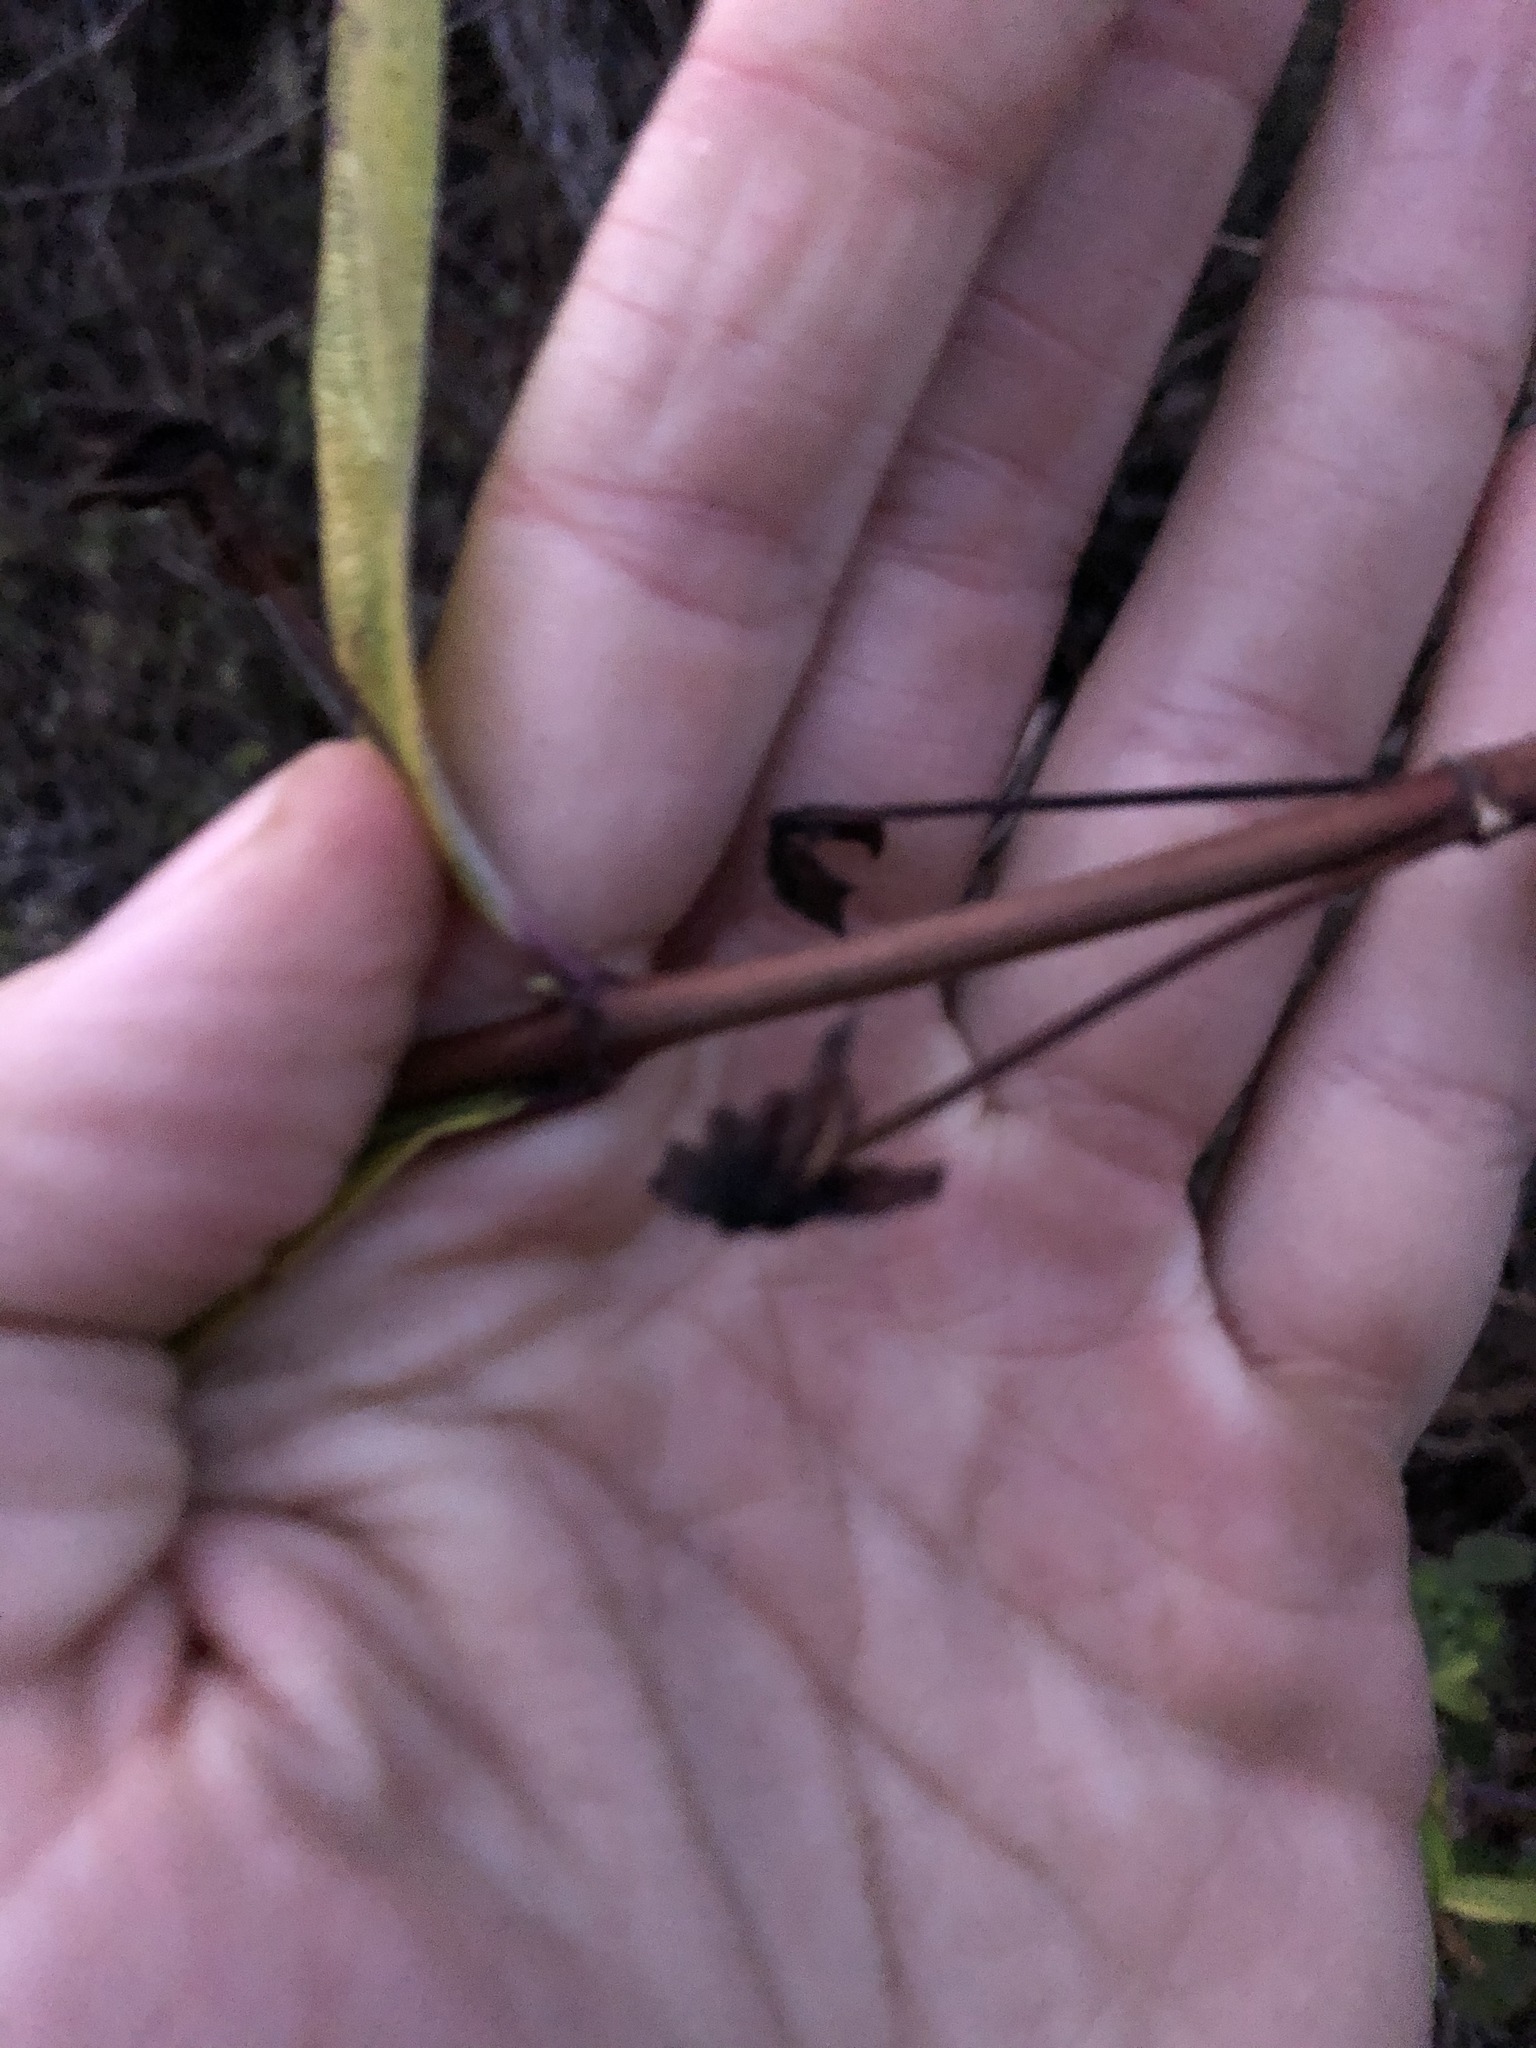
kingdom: Plantae
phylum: Tracheophyta
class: Magnoliopsida
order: Dipsacales
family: Caprifoliaceae
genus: Lonicera
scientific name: Lonicera involucrata
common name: Californian honeysuckle
